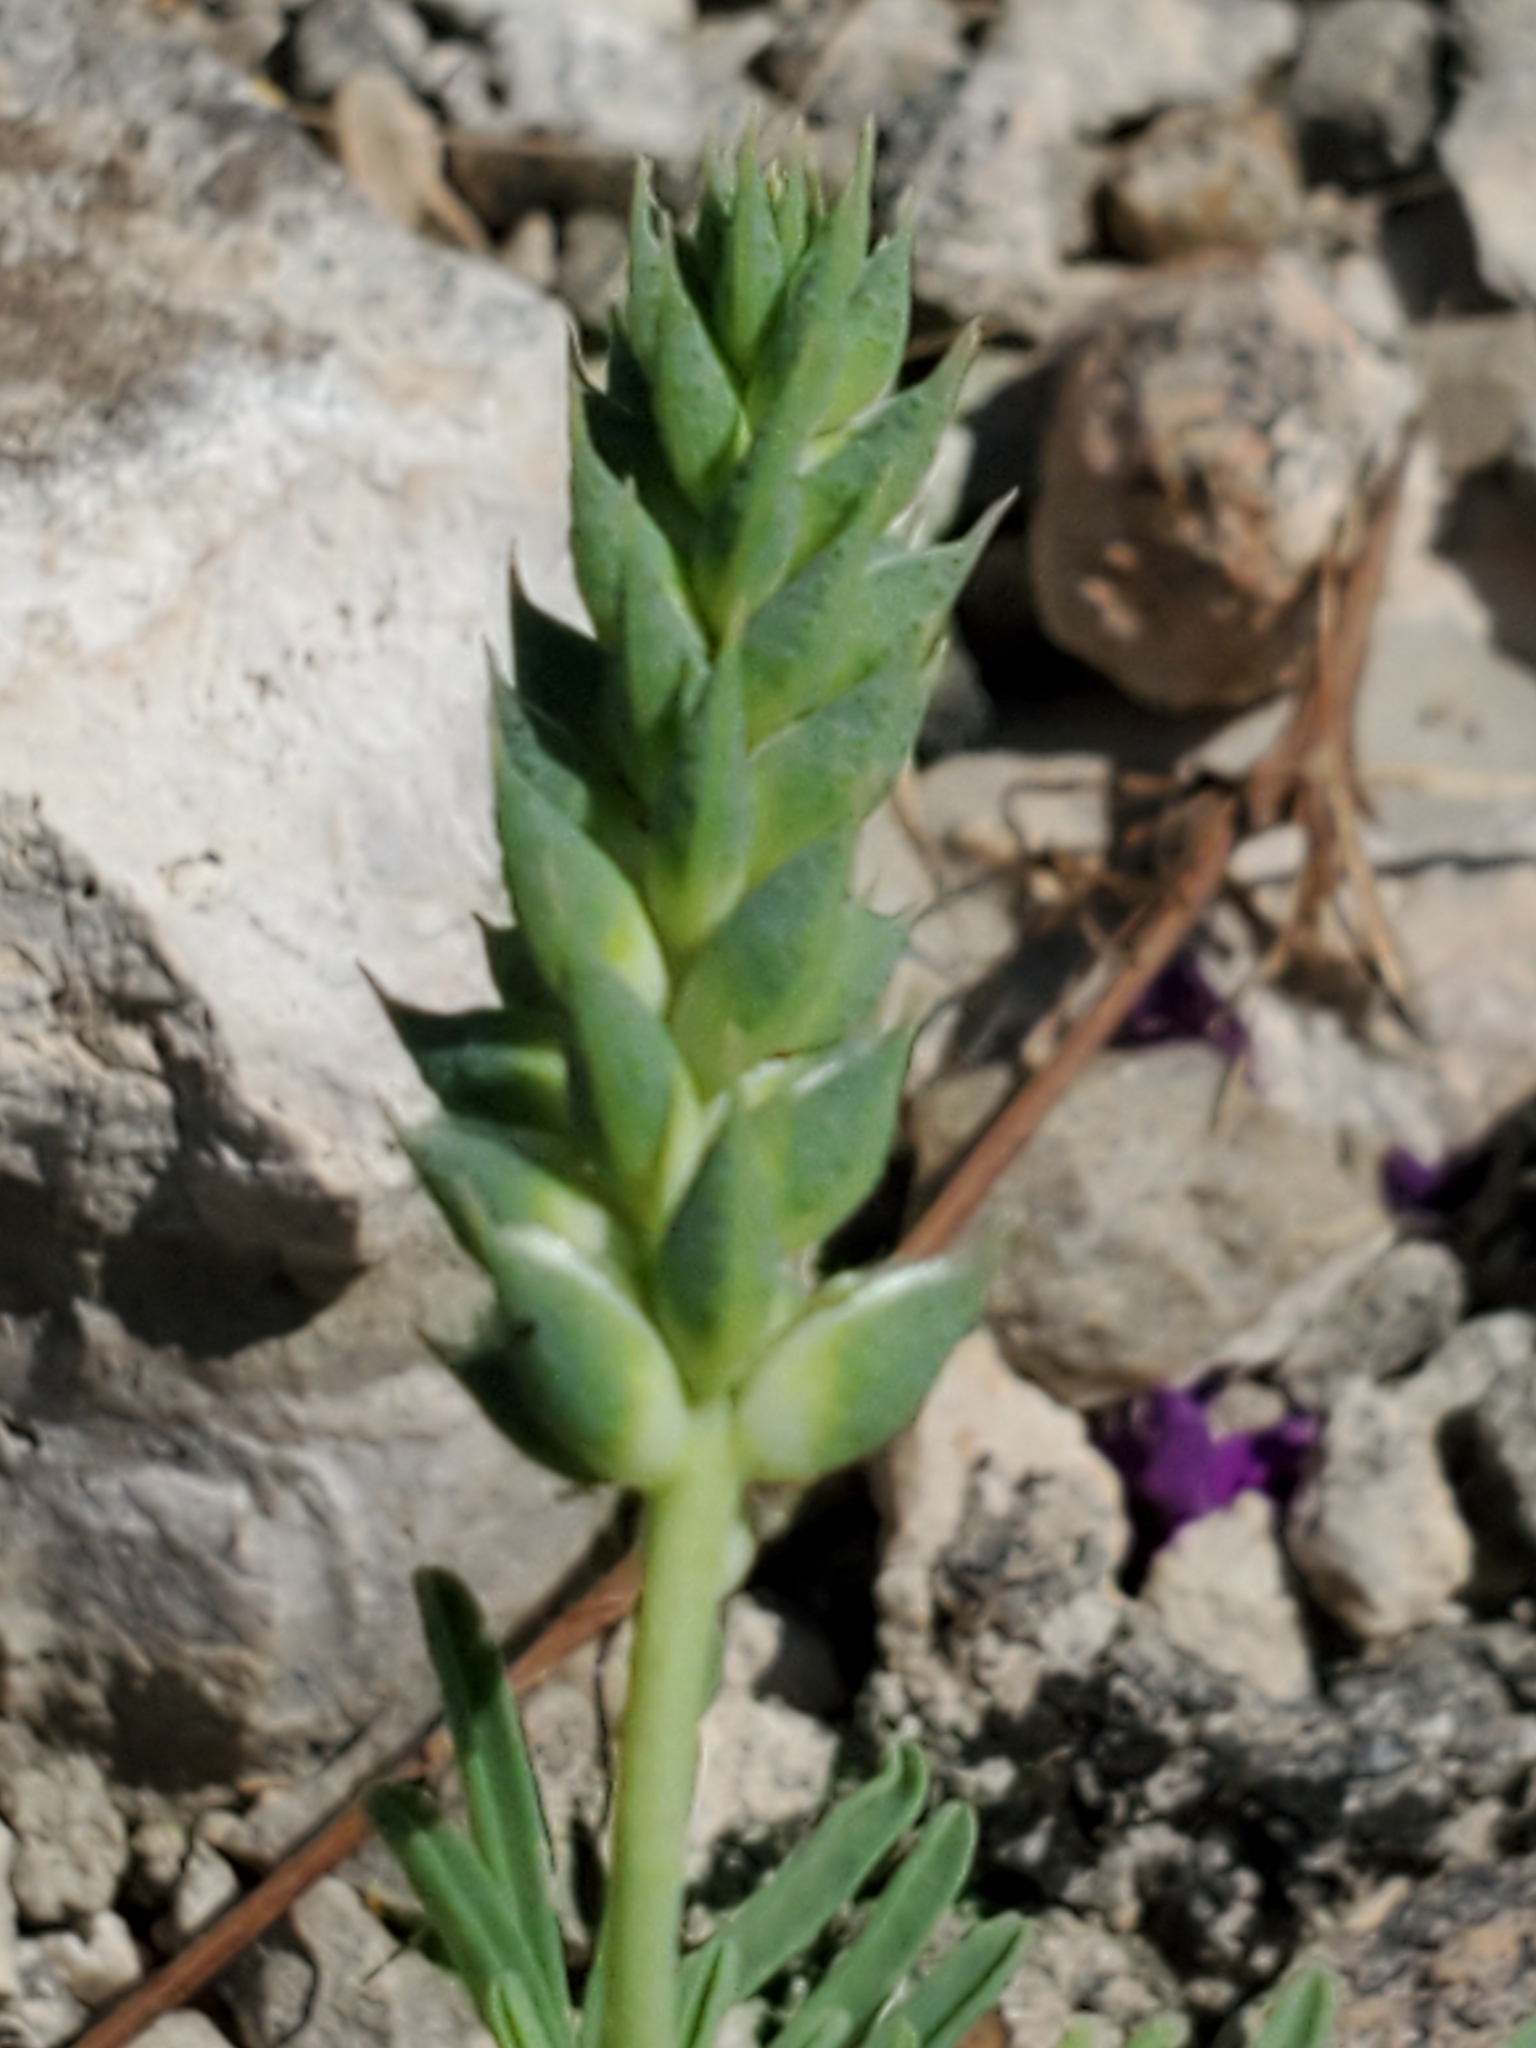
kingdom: Plantae
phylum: Tracheophyta
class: Magnoliopsida
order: Fabales
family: Fabaceae
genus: Dalea
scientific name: Dalea lasiathera
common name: Purple prairie-clover
